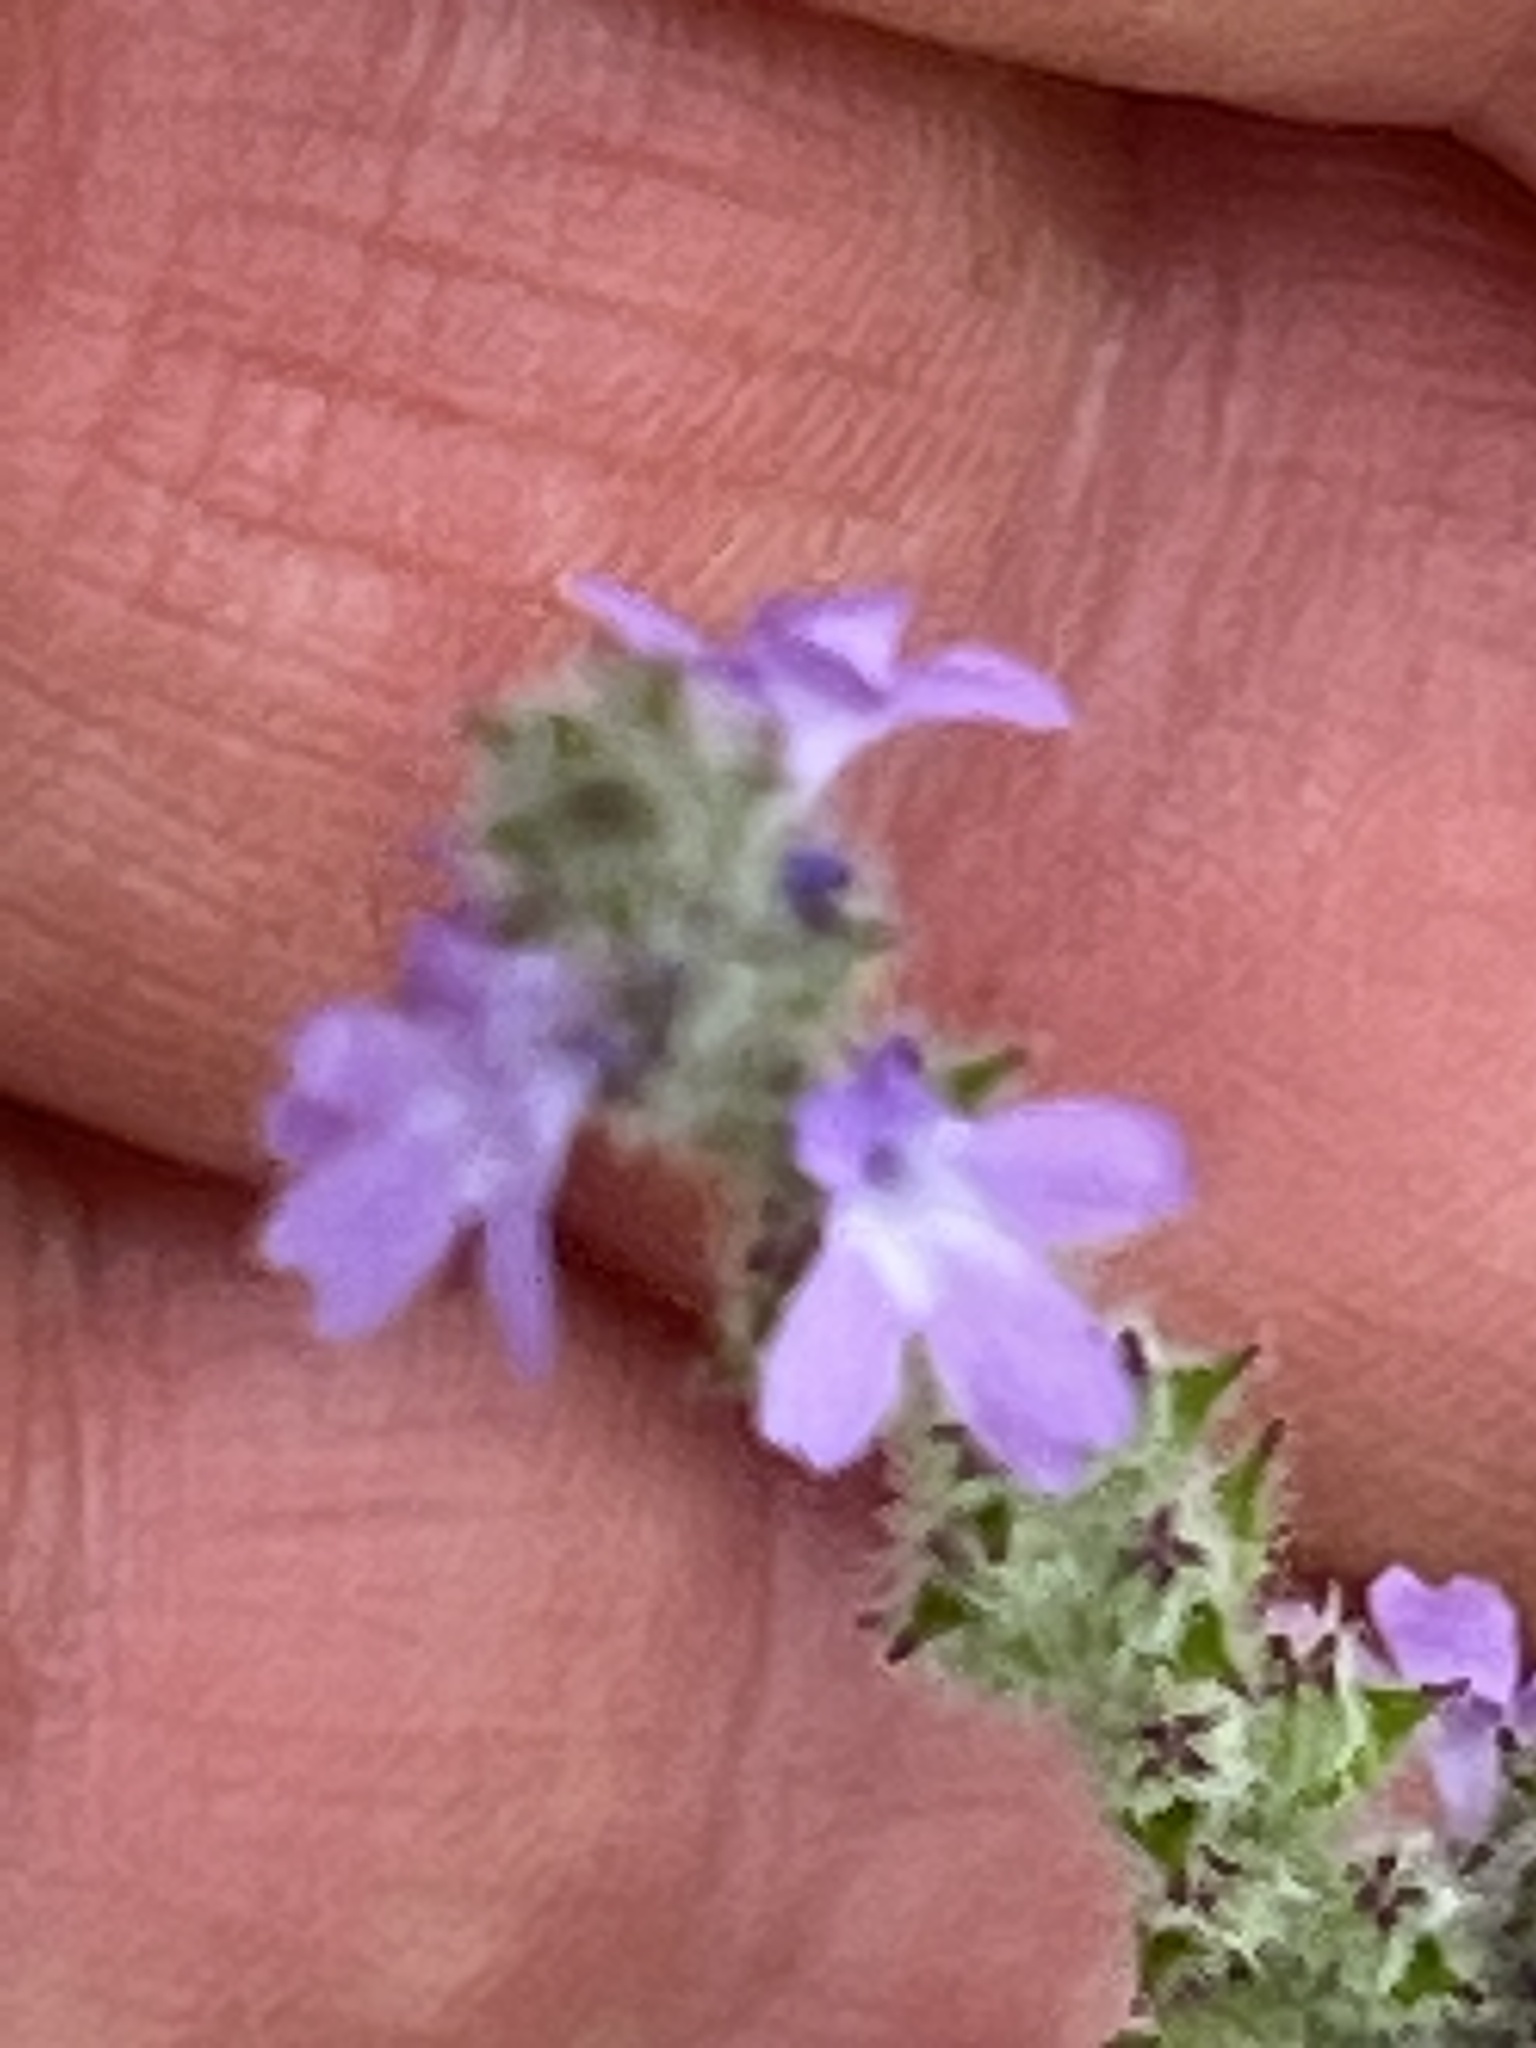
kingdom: Plantae
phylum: Tracheophyta
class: Magnoliopsida
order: Lamiales
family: Verbenaceae
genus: Verbena
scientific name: Verbena canescens
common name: Gray vervain
